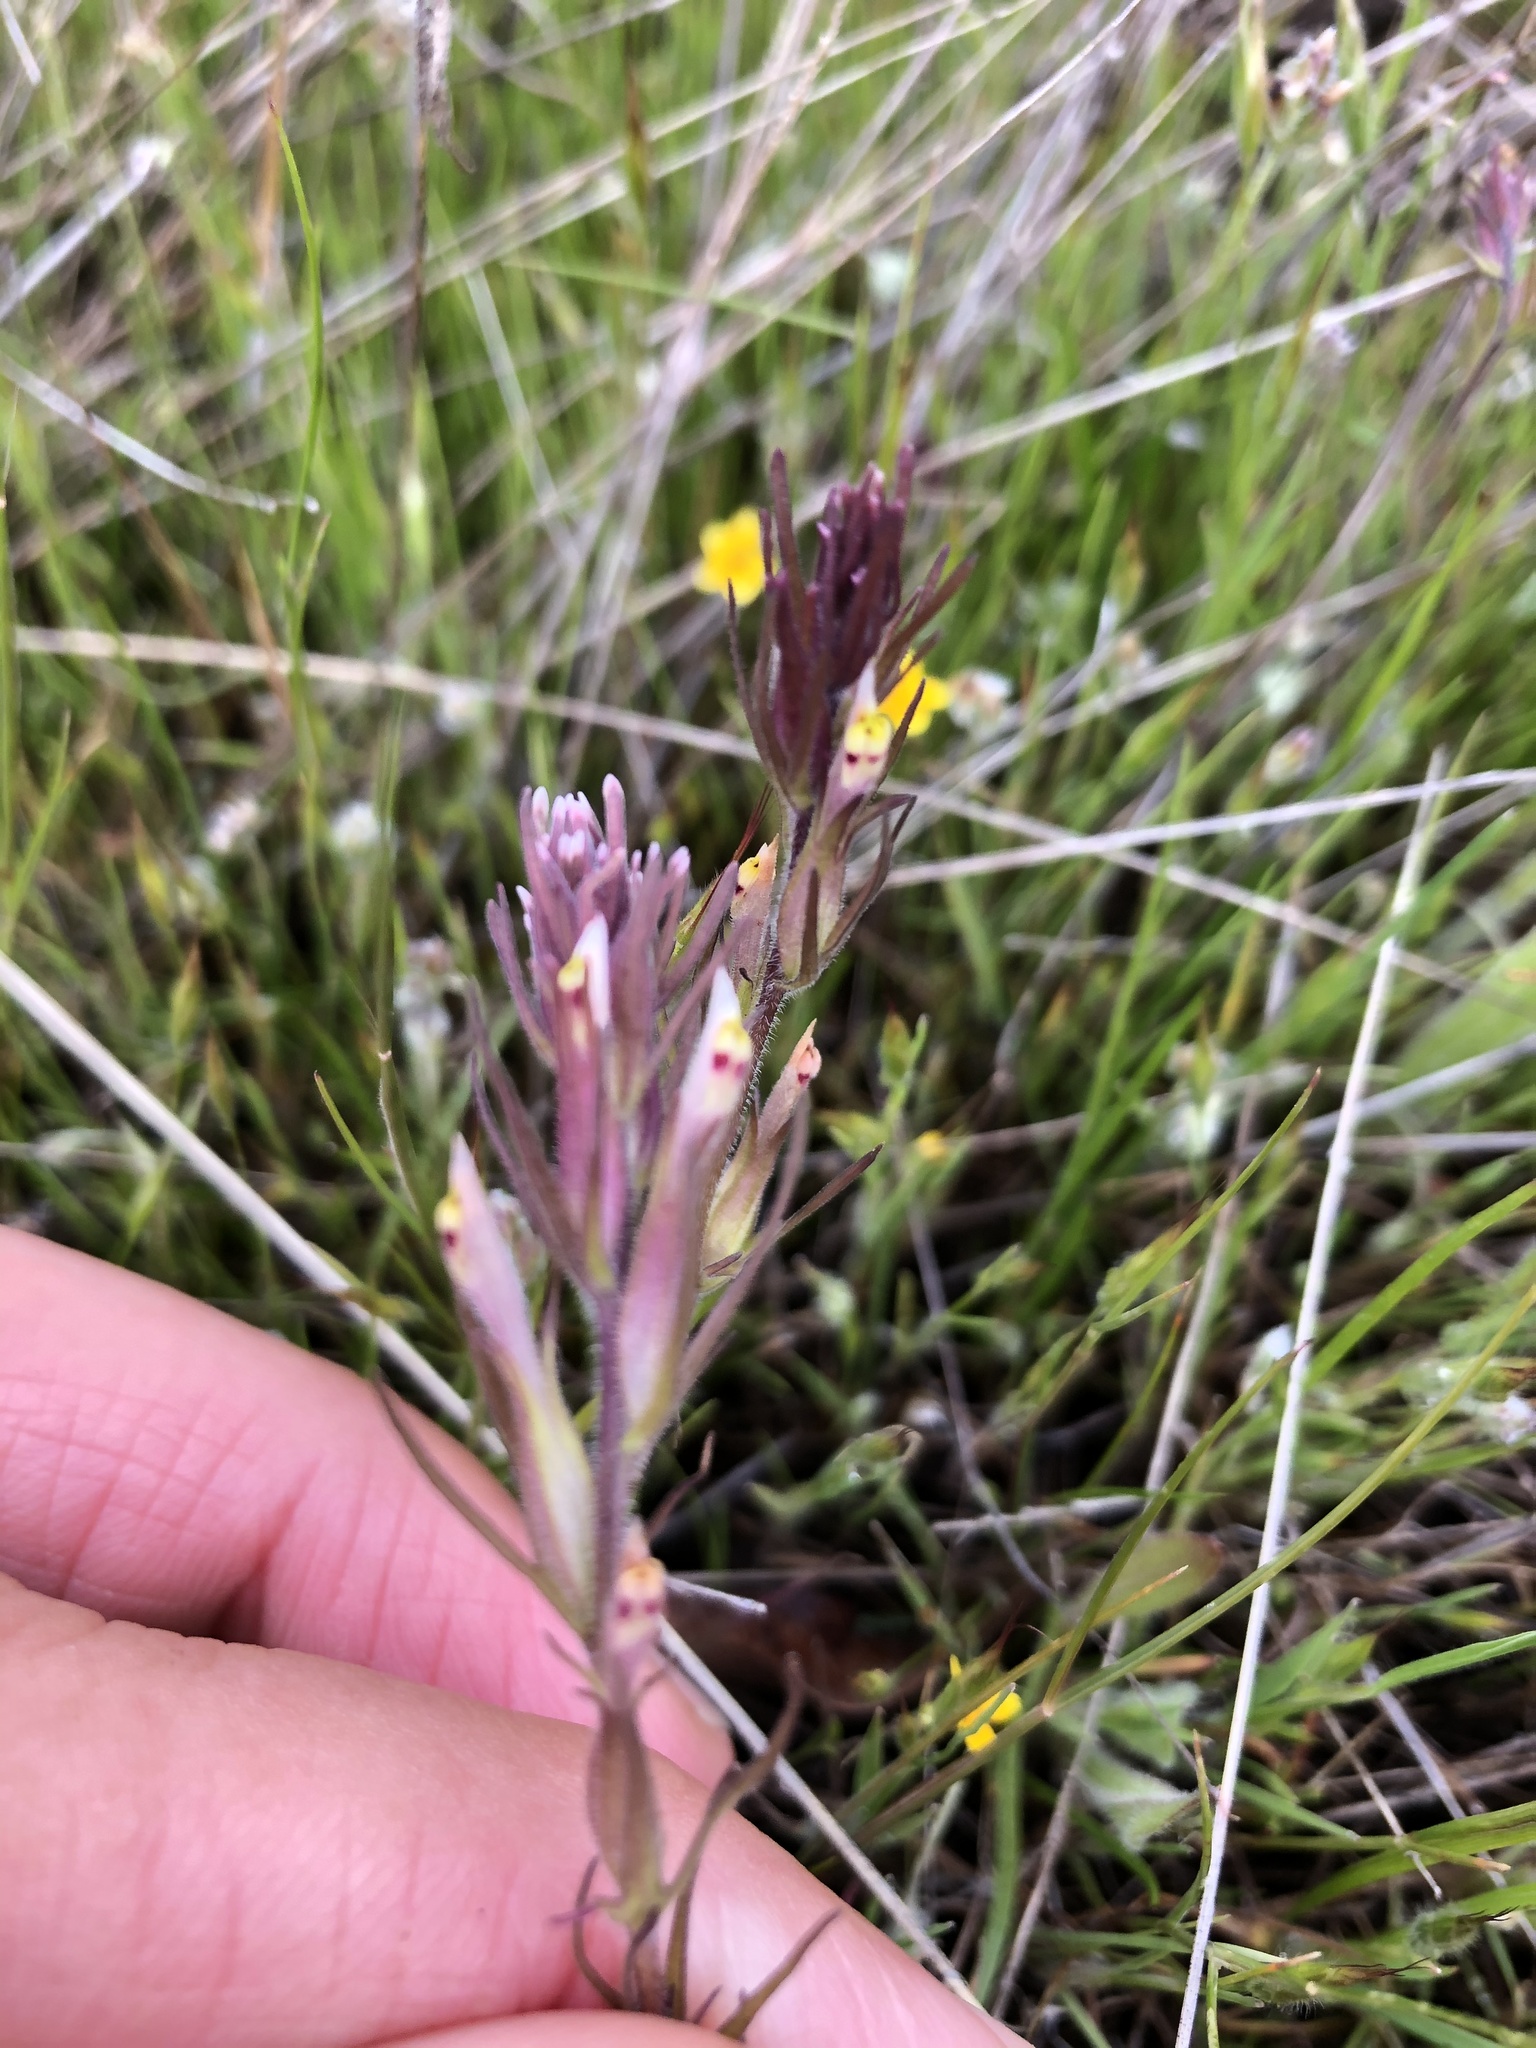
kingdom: Plantae
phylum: Tracheophyta
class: Magnoliopsida
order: Lamiales
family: Orobanchaceae
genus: Castilleja
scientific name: Castilleja attenuata
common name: Valley tassels
